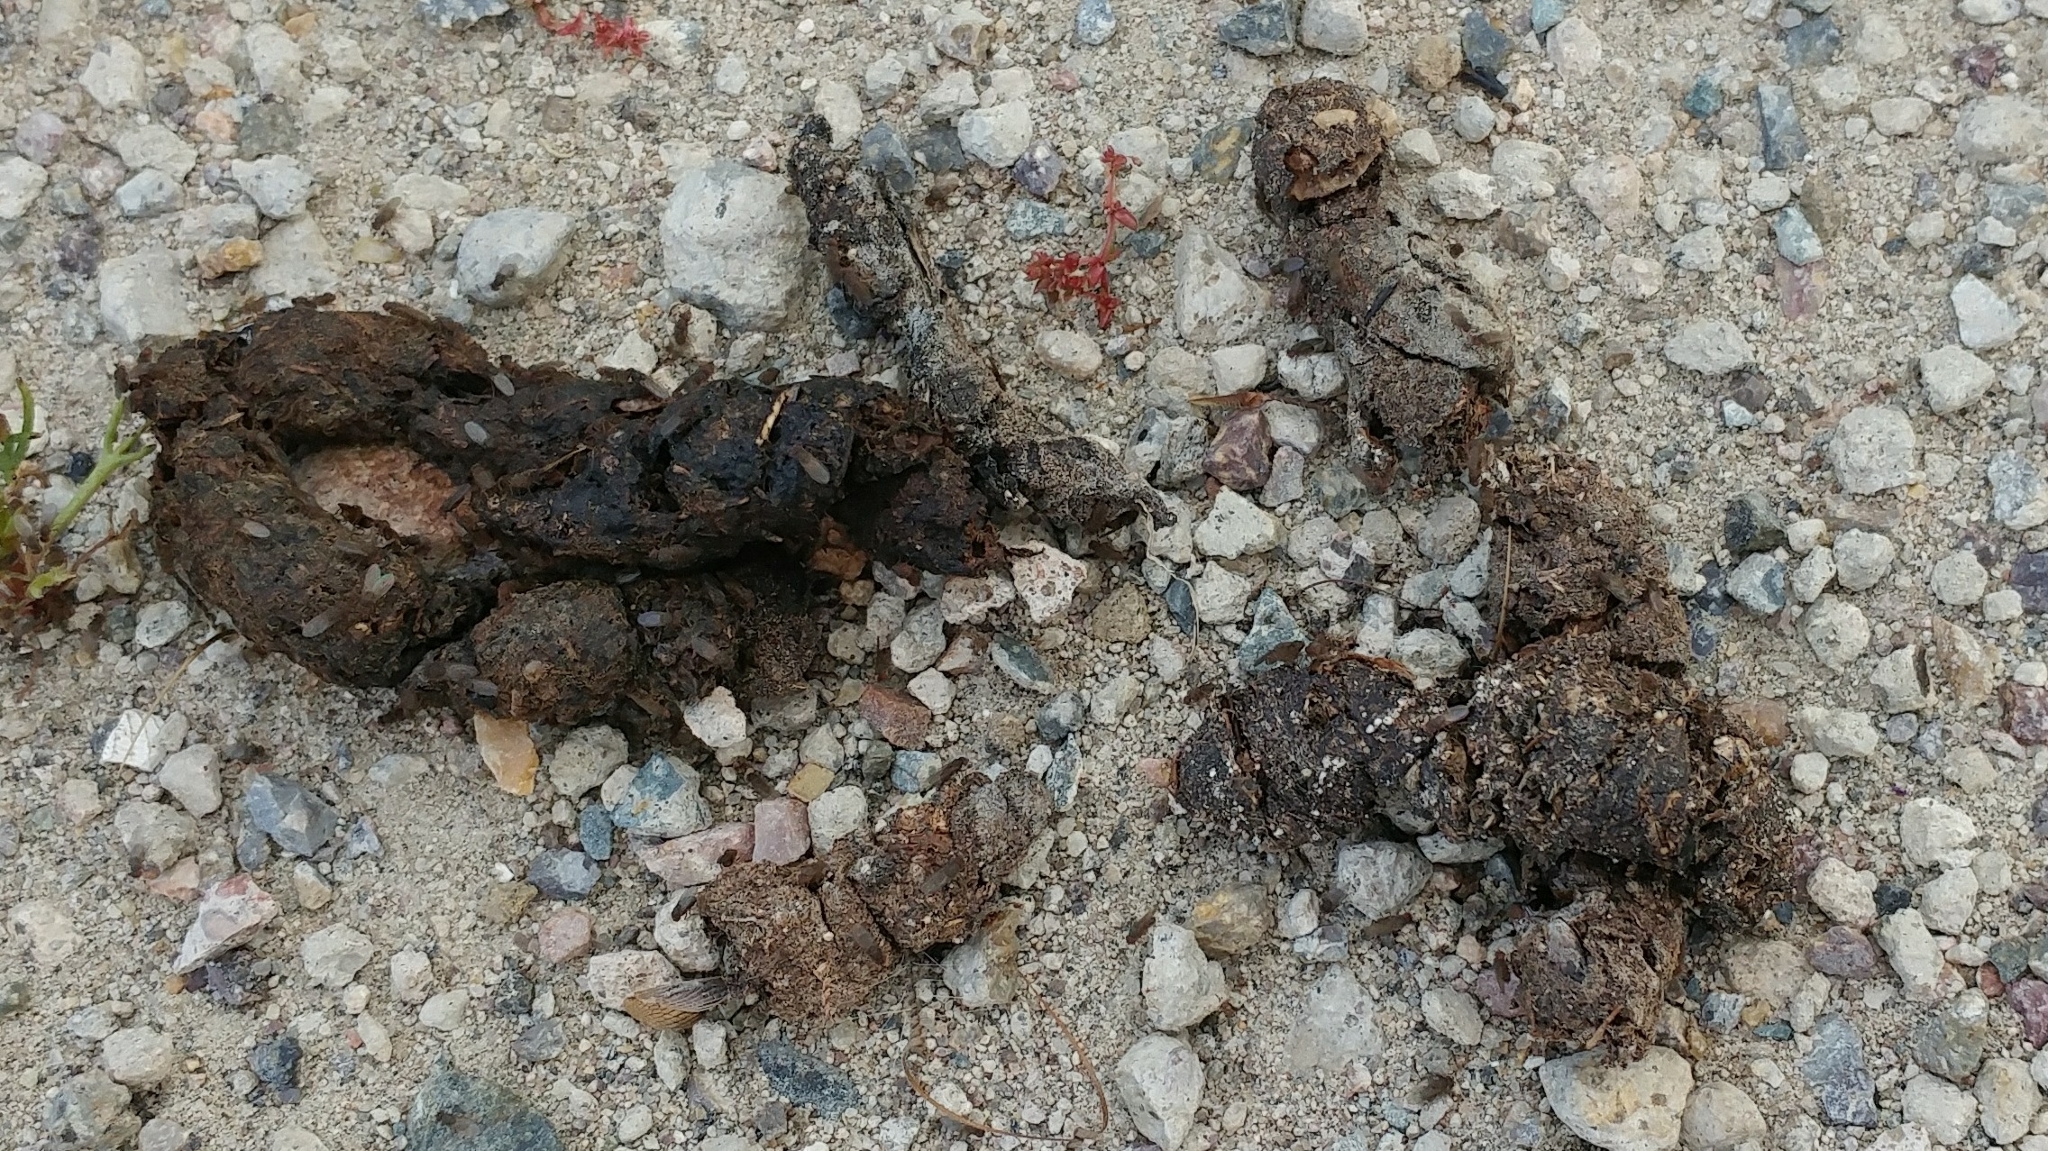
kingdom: Animalia
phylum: Chordata
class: Mammalia
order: Carnivora
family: Canidae
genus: Urocyon
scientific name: Urocyon littoralis
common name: Island gray fox
